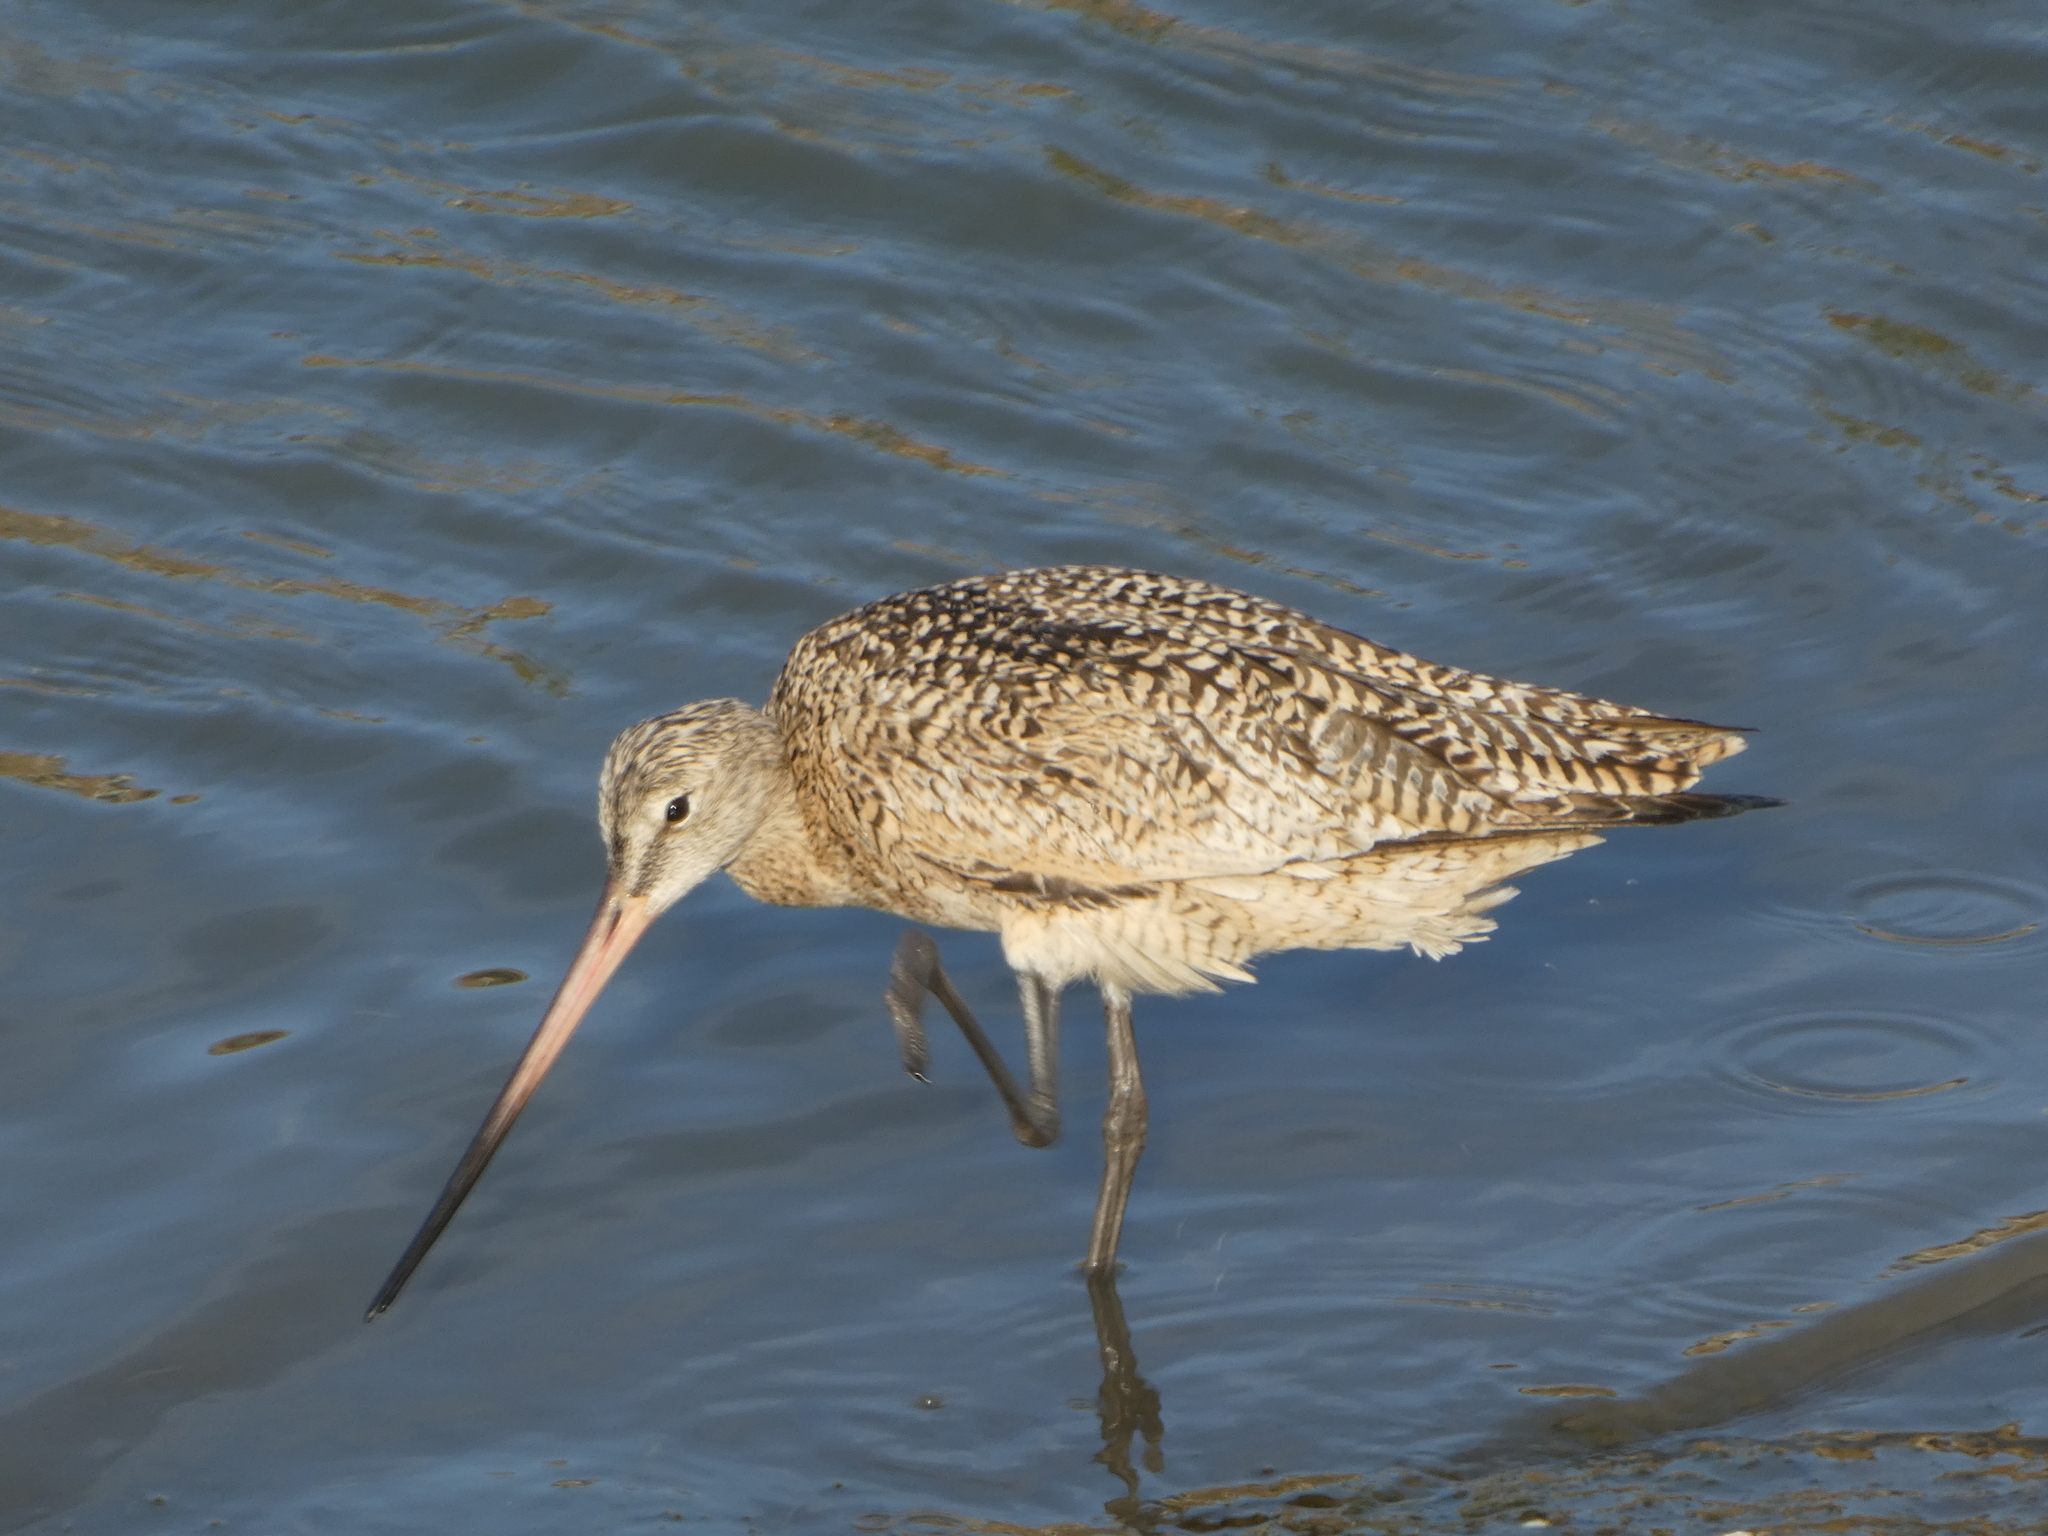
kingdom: Animalia
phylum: Chordata
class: Aves
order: Charadriiformes
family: Scolopacidae
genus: Limosa
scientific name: Limosa fedoa
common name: Marbled godwit
